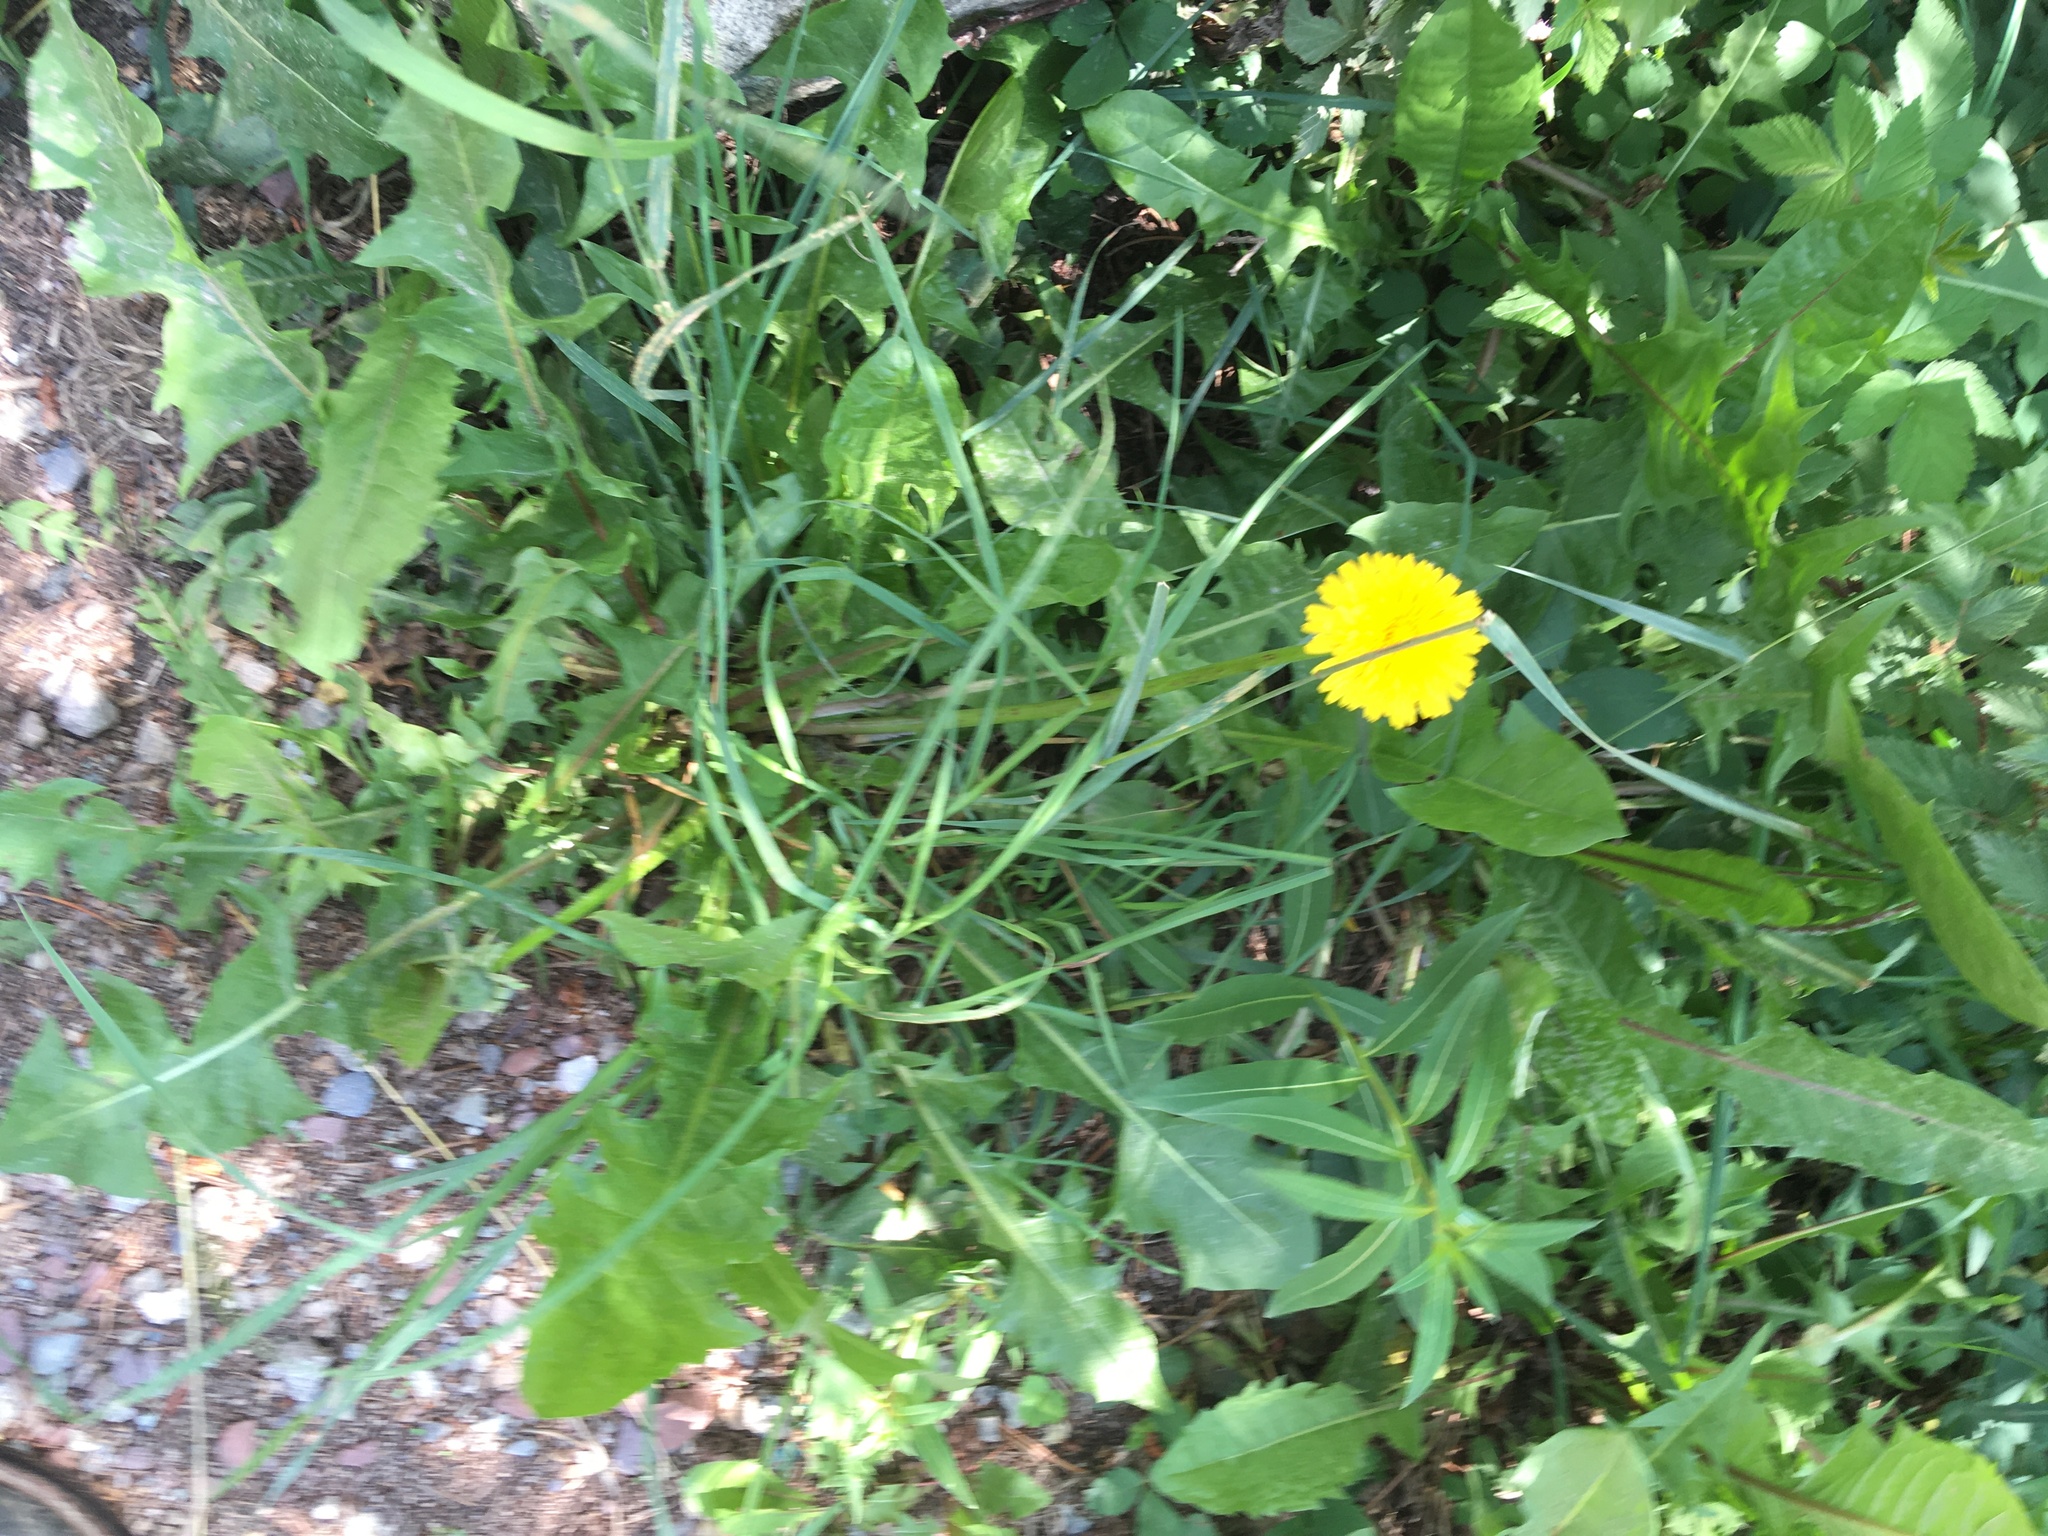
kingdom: Plantae
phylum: Tracheophyta
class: Magnoliopsida
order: Asterales
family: Asteraceae
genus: Taraxacum
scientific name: Taraxacum officinale
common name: Common dandelion
